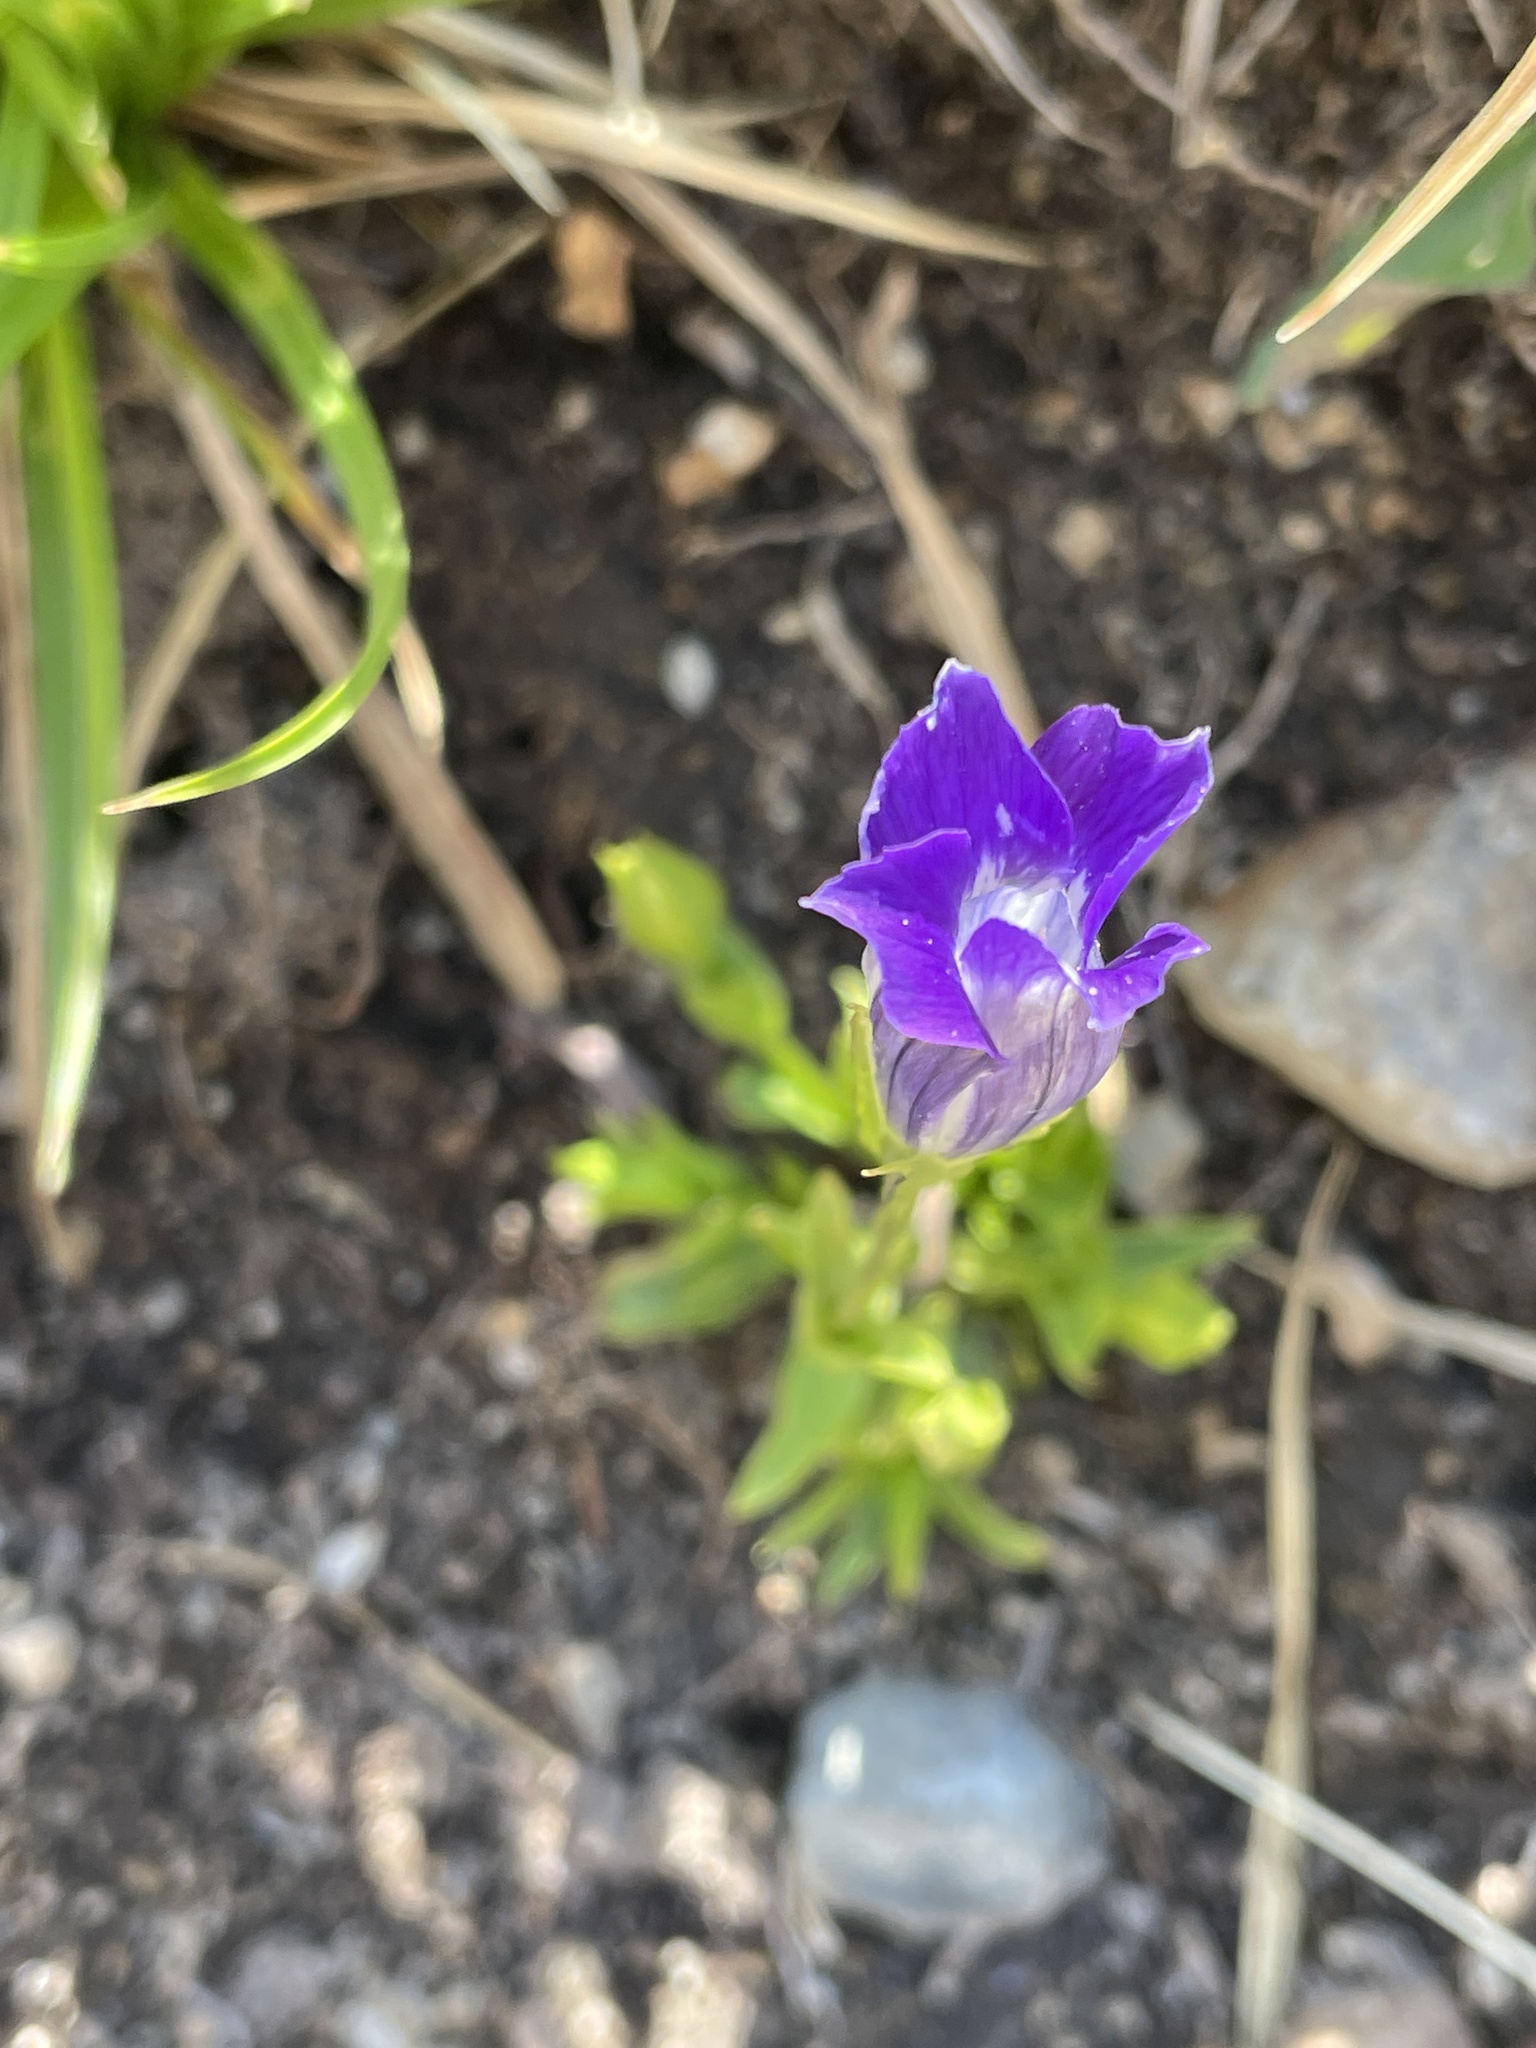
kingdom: Plantae
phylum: Tracheophyta
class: Magnoliopsida
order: Gentianales
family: Gentianaceae
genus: Gentianopsis
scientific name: Gentianopsis holopetala
